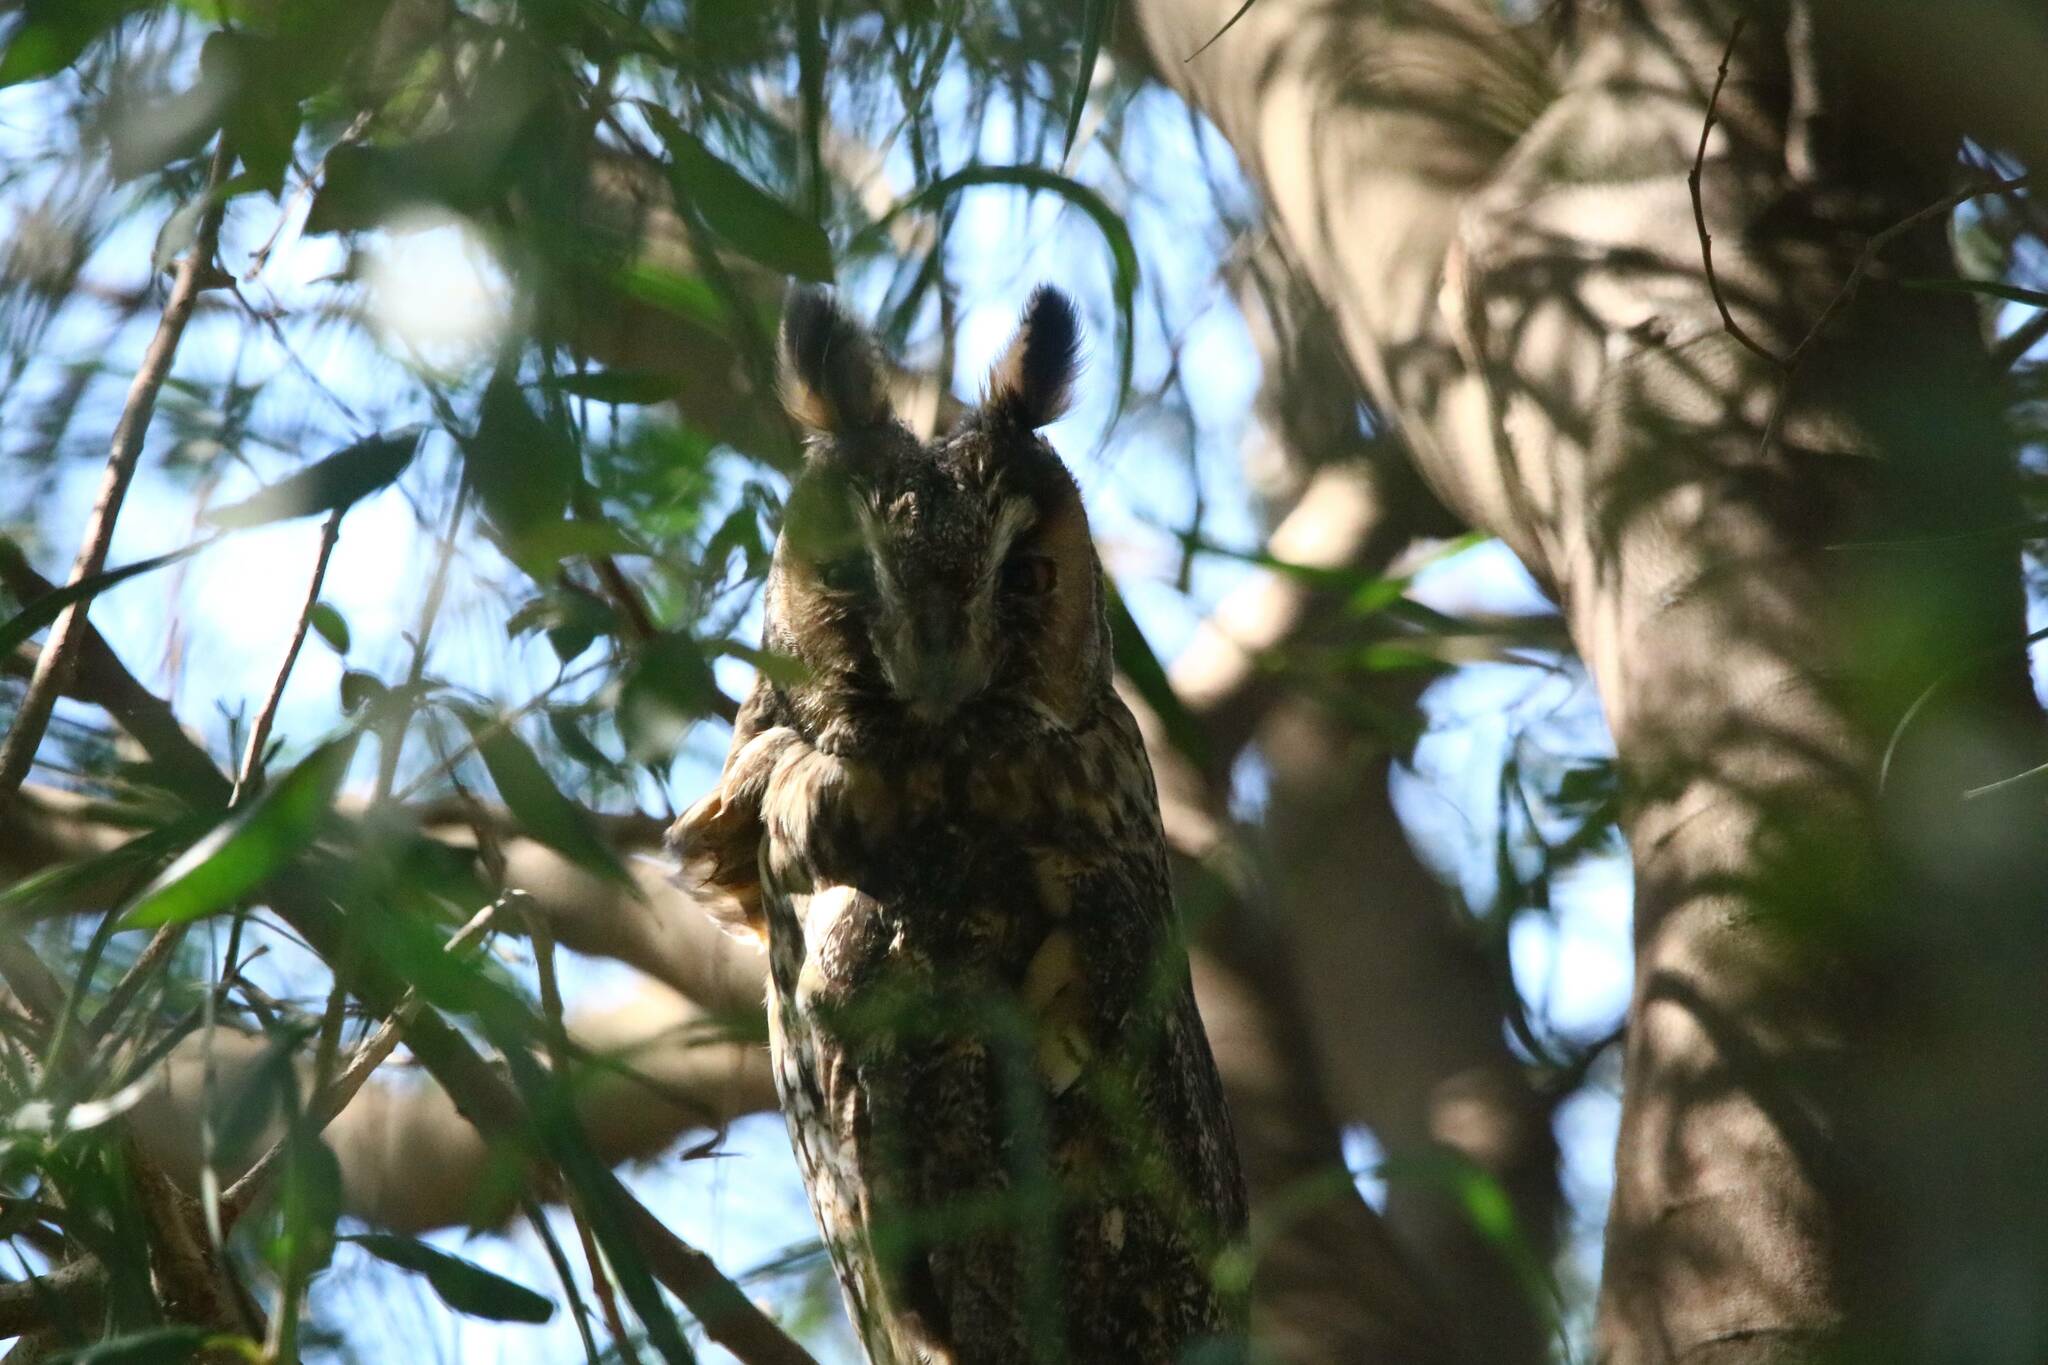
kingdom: Animalia
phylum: Chordata
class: Aves
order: Strigiformes
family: Strigidae
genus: Asio
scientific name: Asio otus
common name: Long-eared owl
